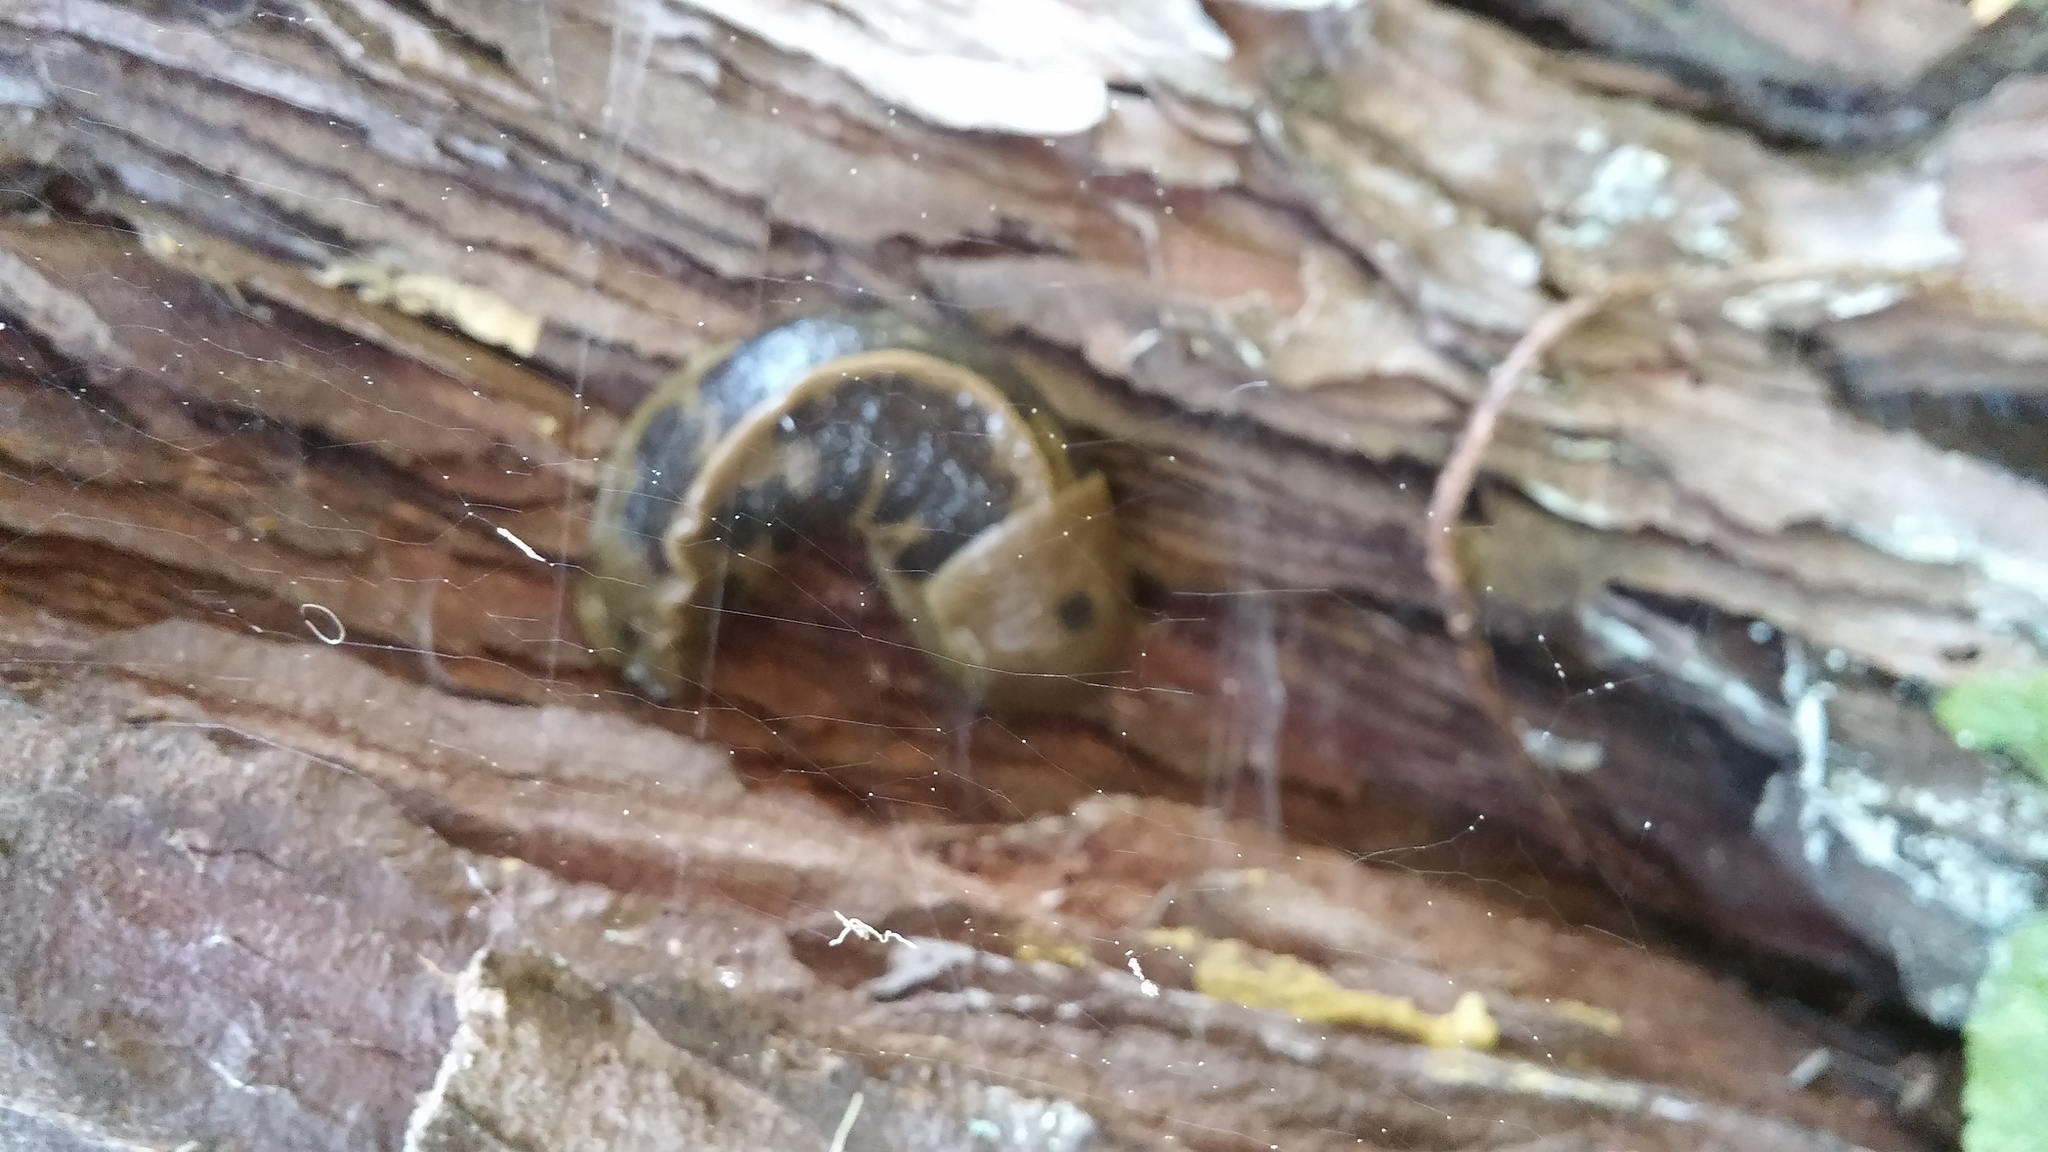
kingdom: Animalia
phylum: Mollusca
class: Gastropoda
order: Stylommatophora
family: Ariolimacidae
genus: Ariolimax
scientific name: Ariolimax columbianus
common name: Pacific banana slug
